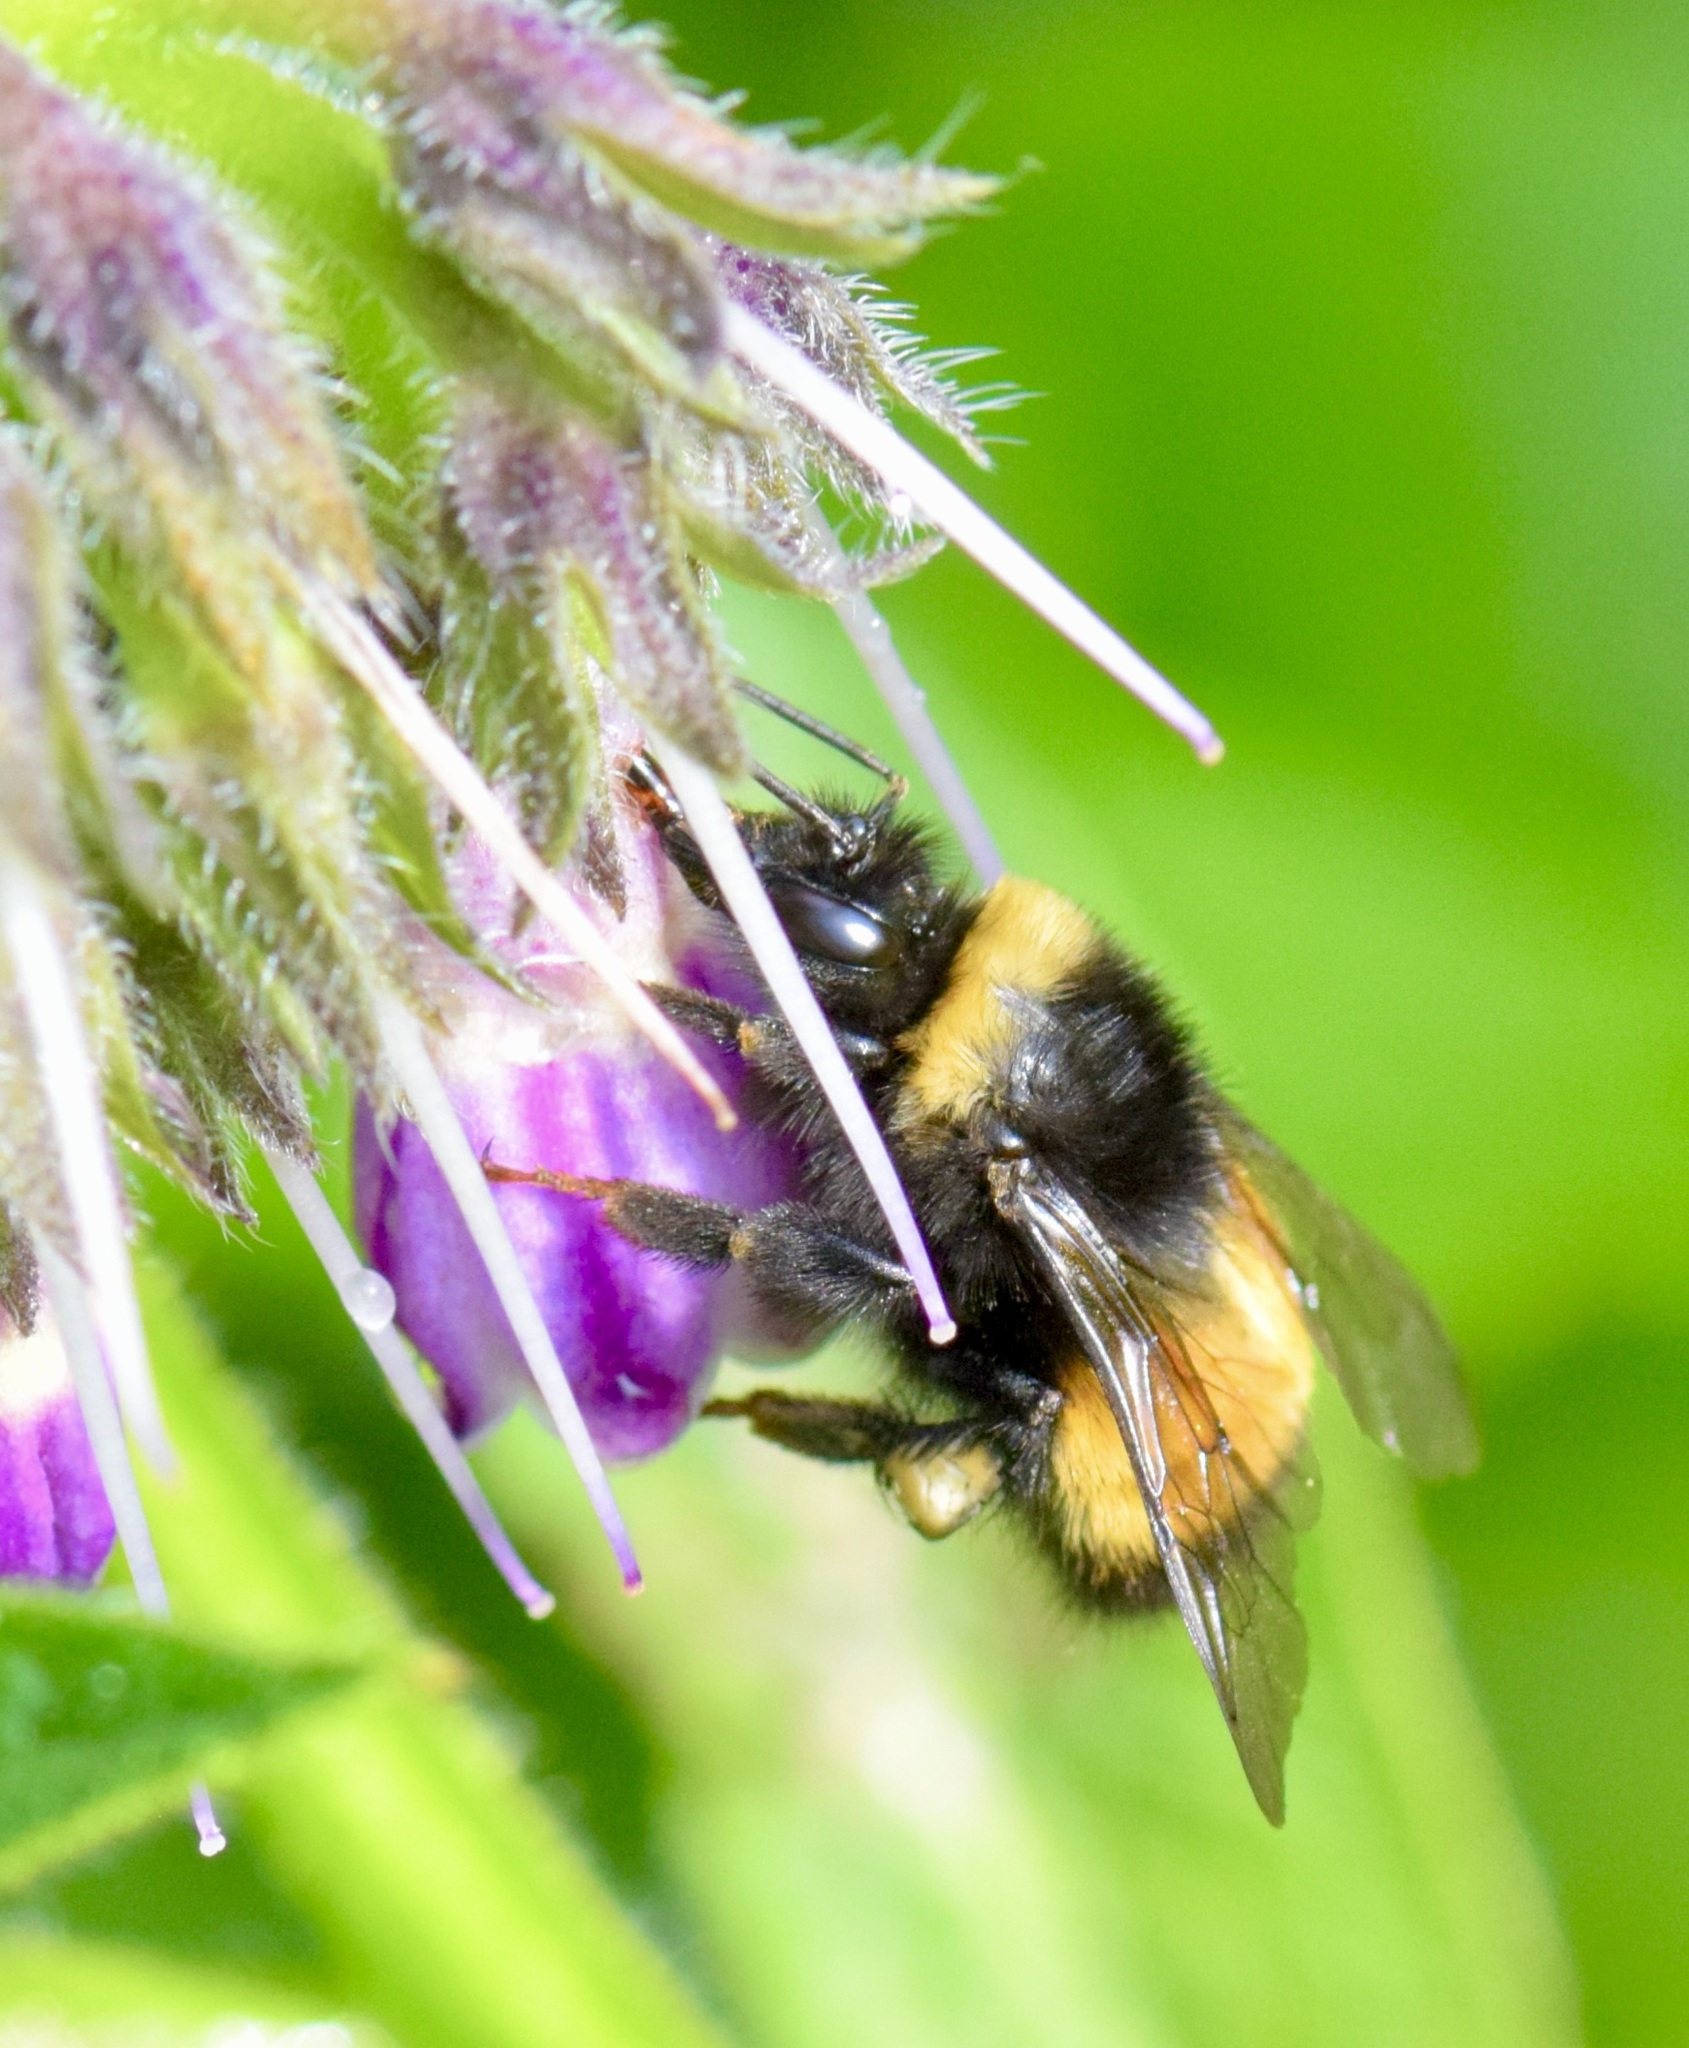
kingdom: Animalia
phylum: Arthropoda
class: Insecta
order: Hymenoptera
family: Apidae
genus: Bombus
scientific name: Bombus terricola
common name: Yellow-banded bumble bee
